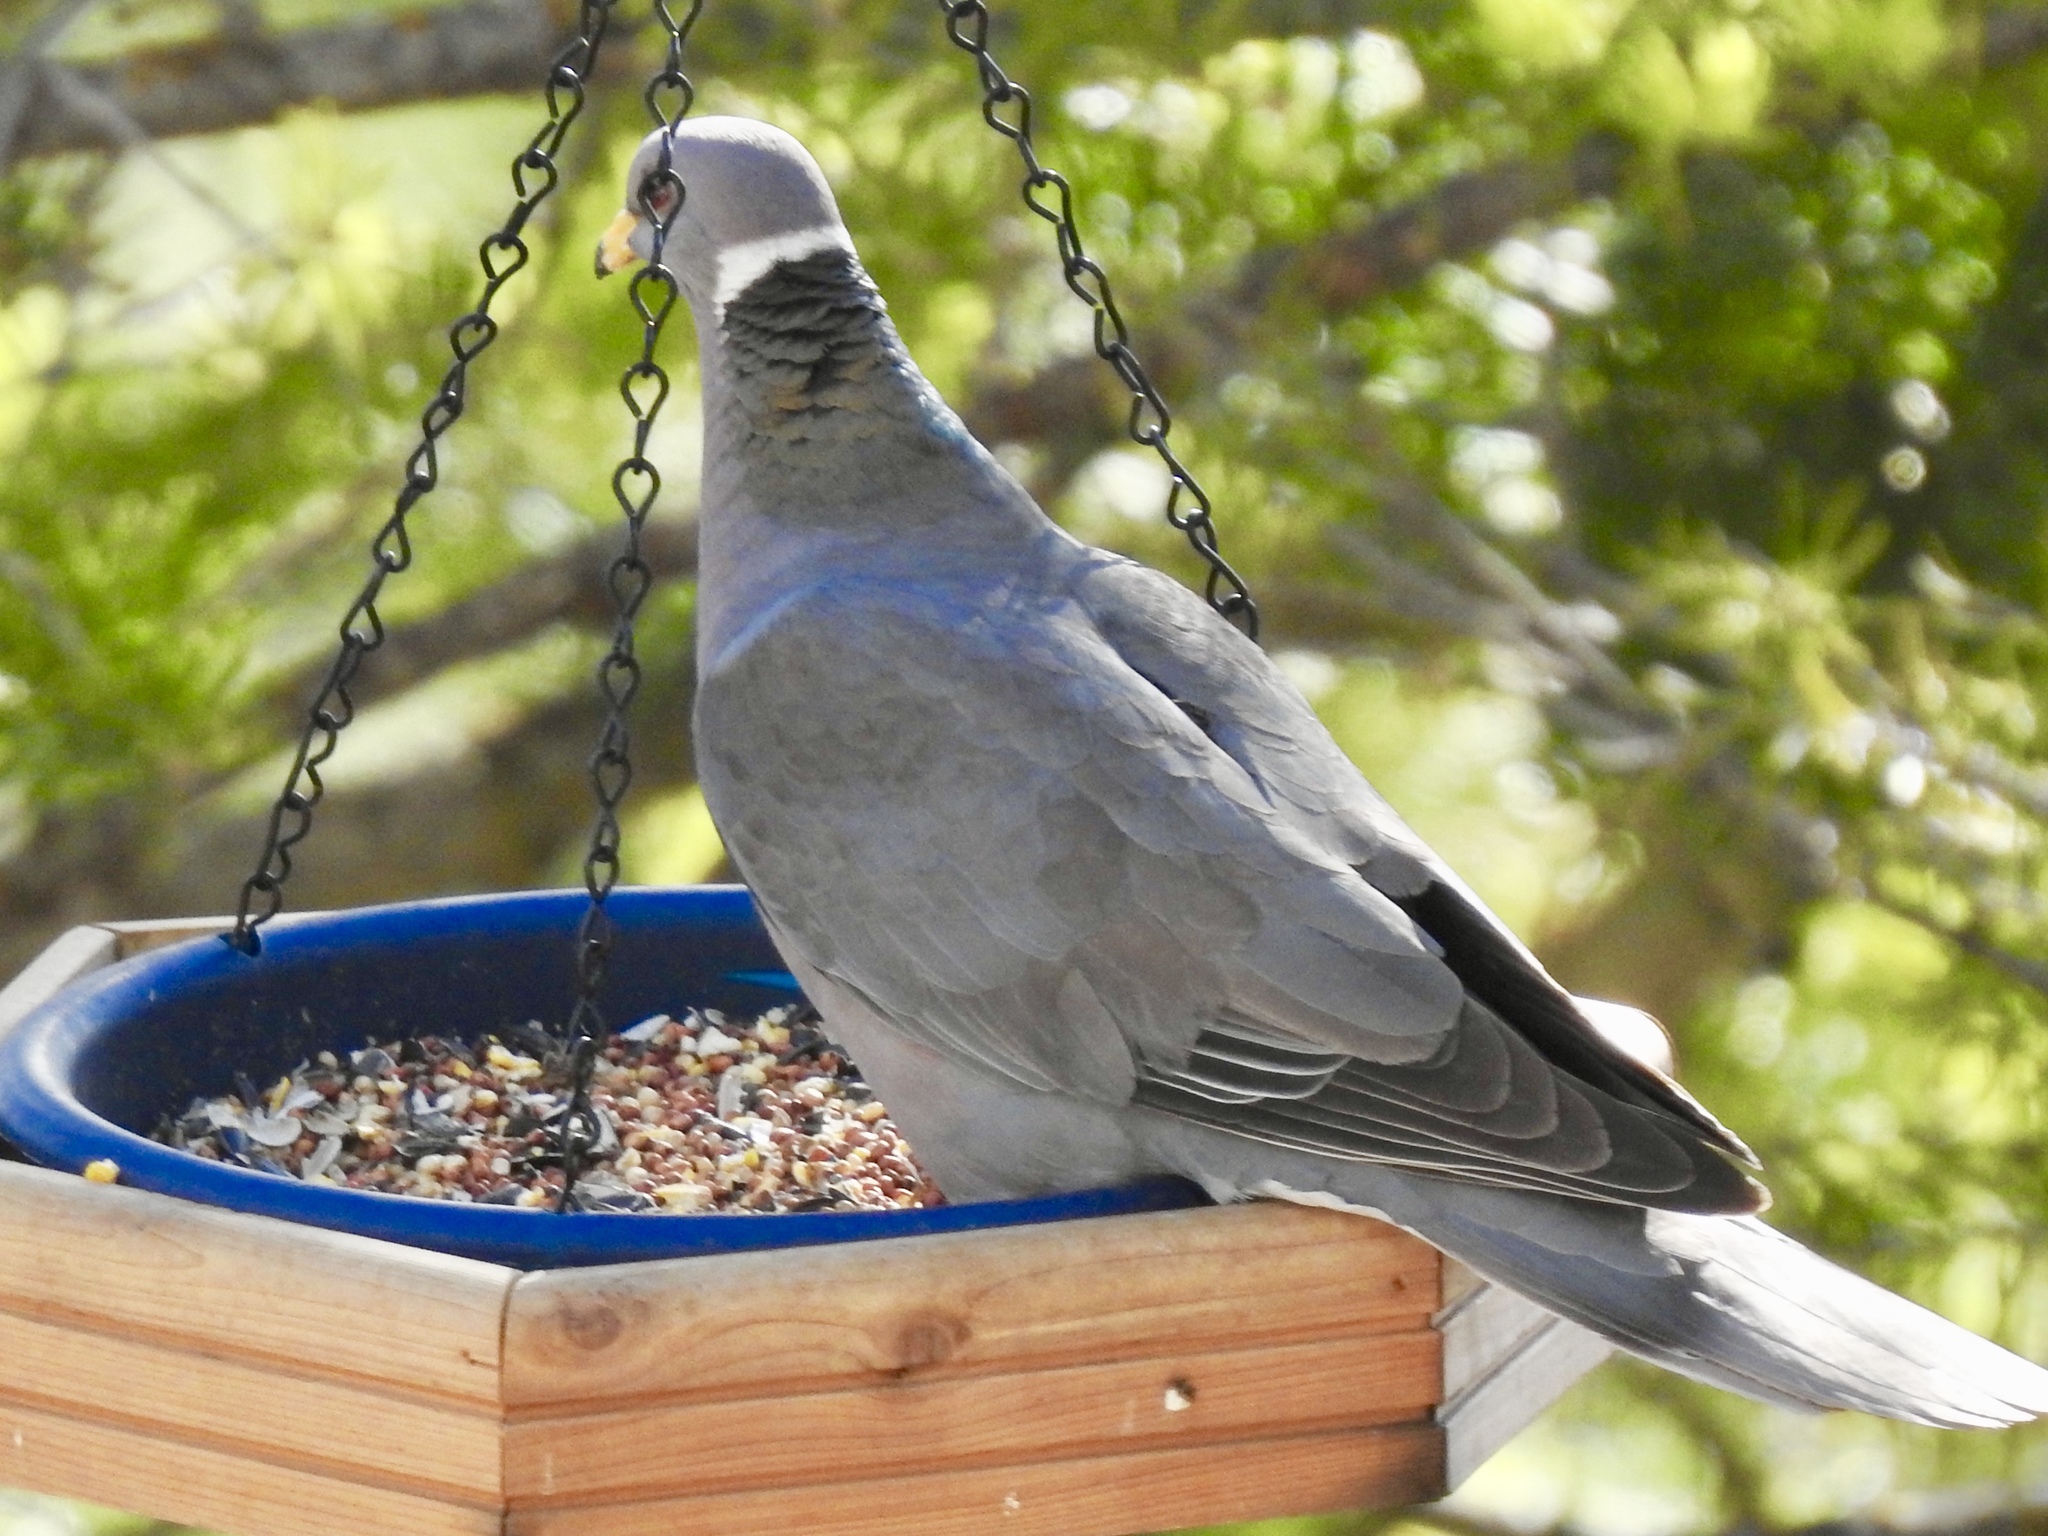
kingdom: Animalia
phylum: Chordata
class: Aves
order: Columbiformes
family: Columbidae
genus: Patagioenas
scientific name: Patagioenas fasciata
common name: Band-tailed pigeon
